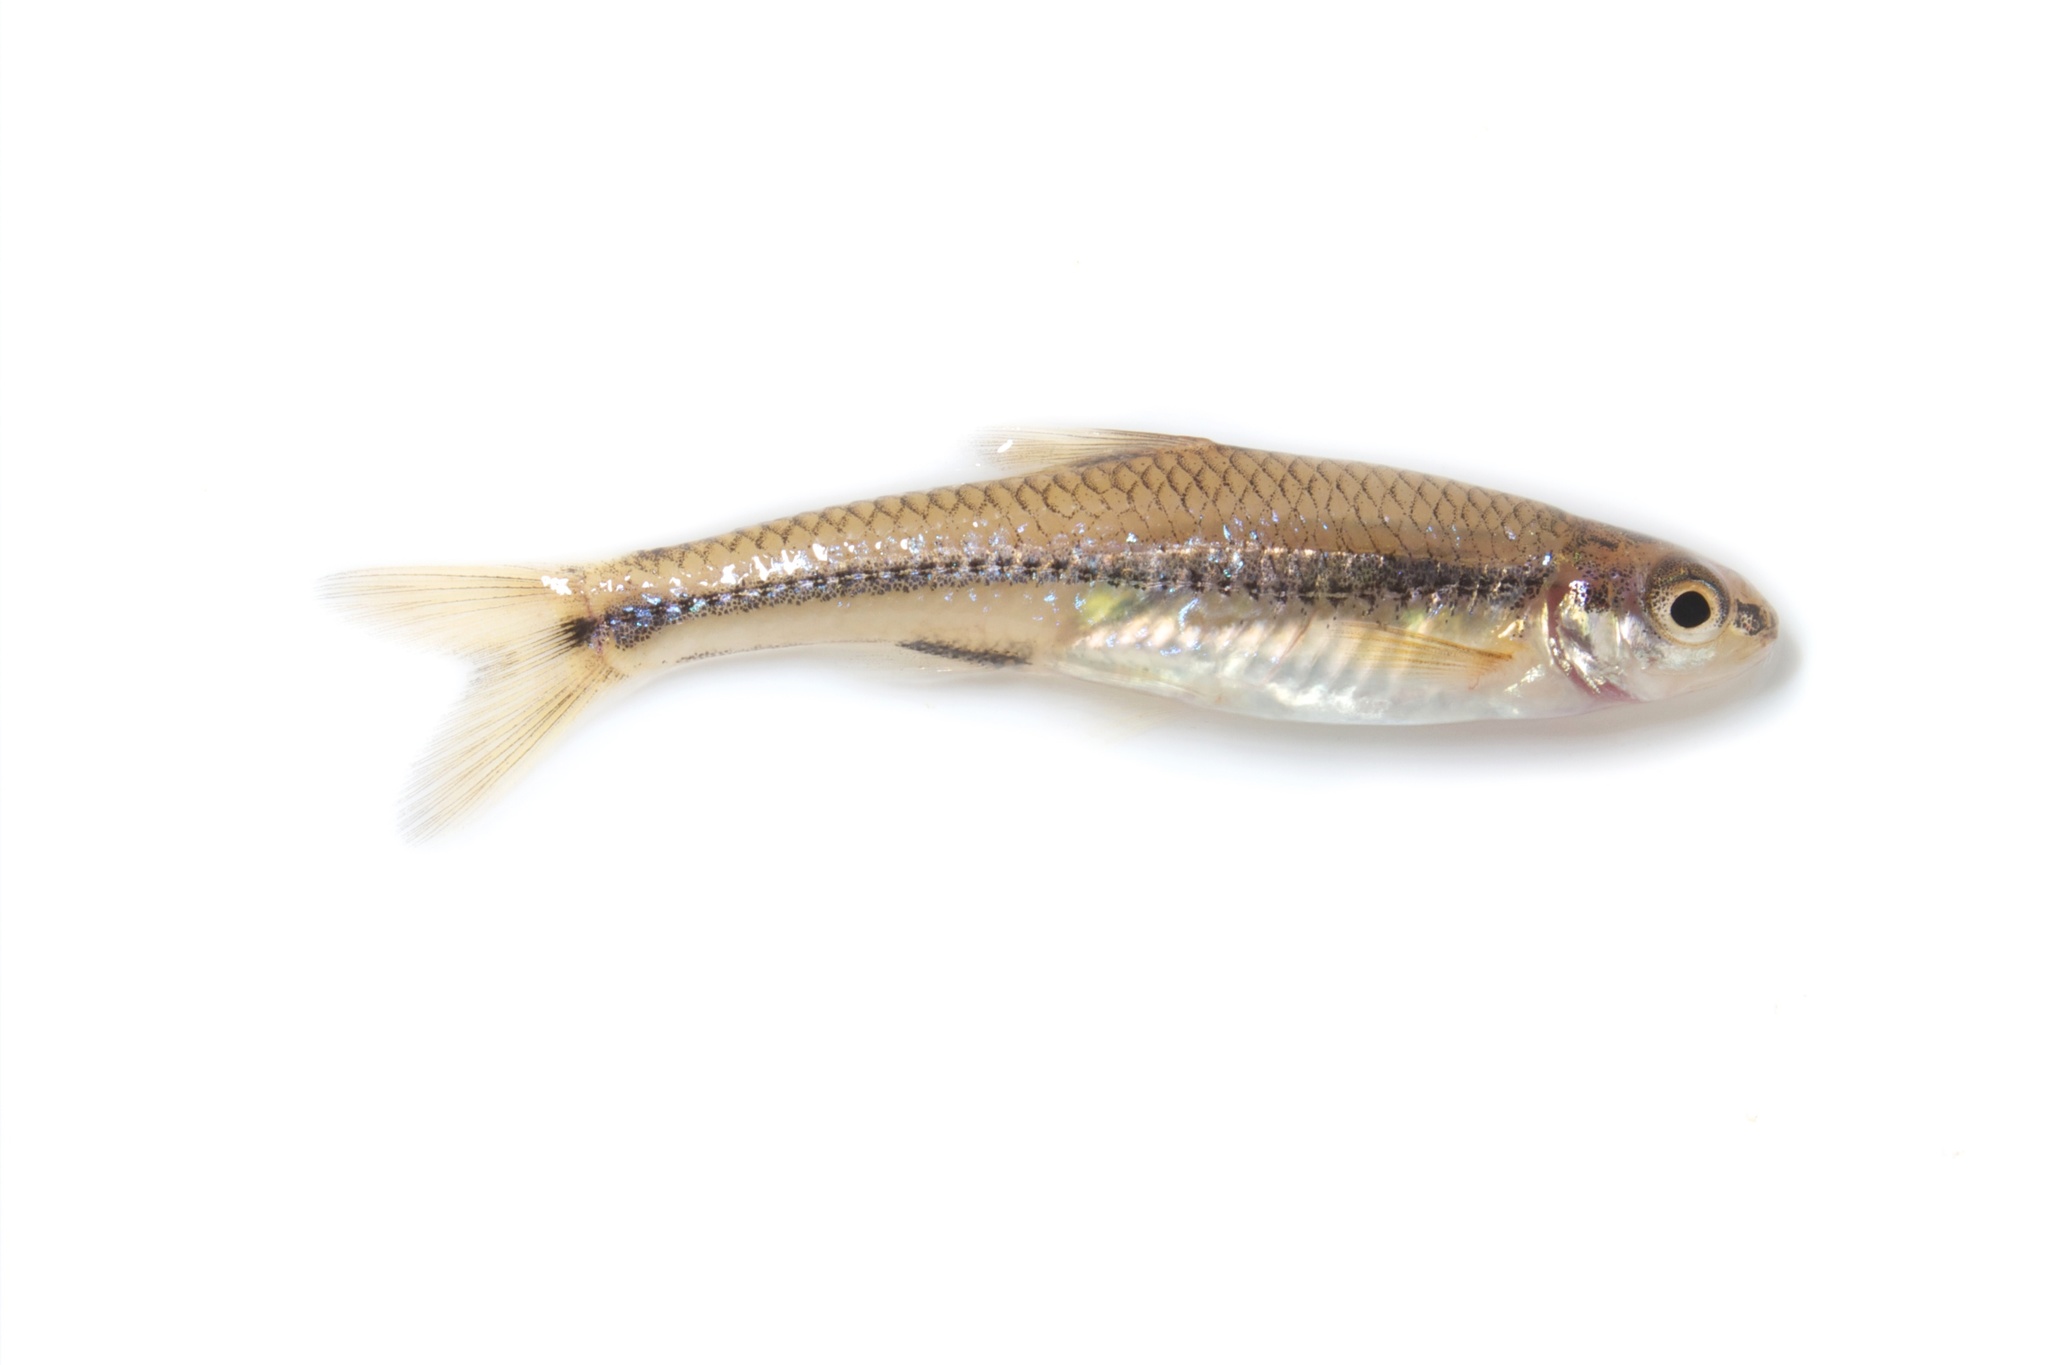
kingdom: Animalia
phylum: Chordata
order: Cypriniformes
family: Cyprinidae
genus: Notropis
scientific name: Notropis
